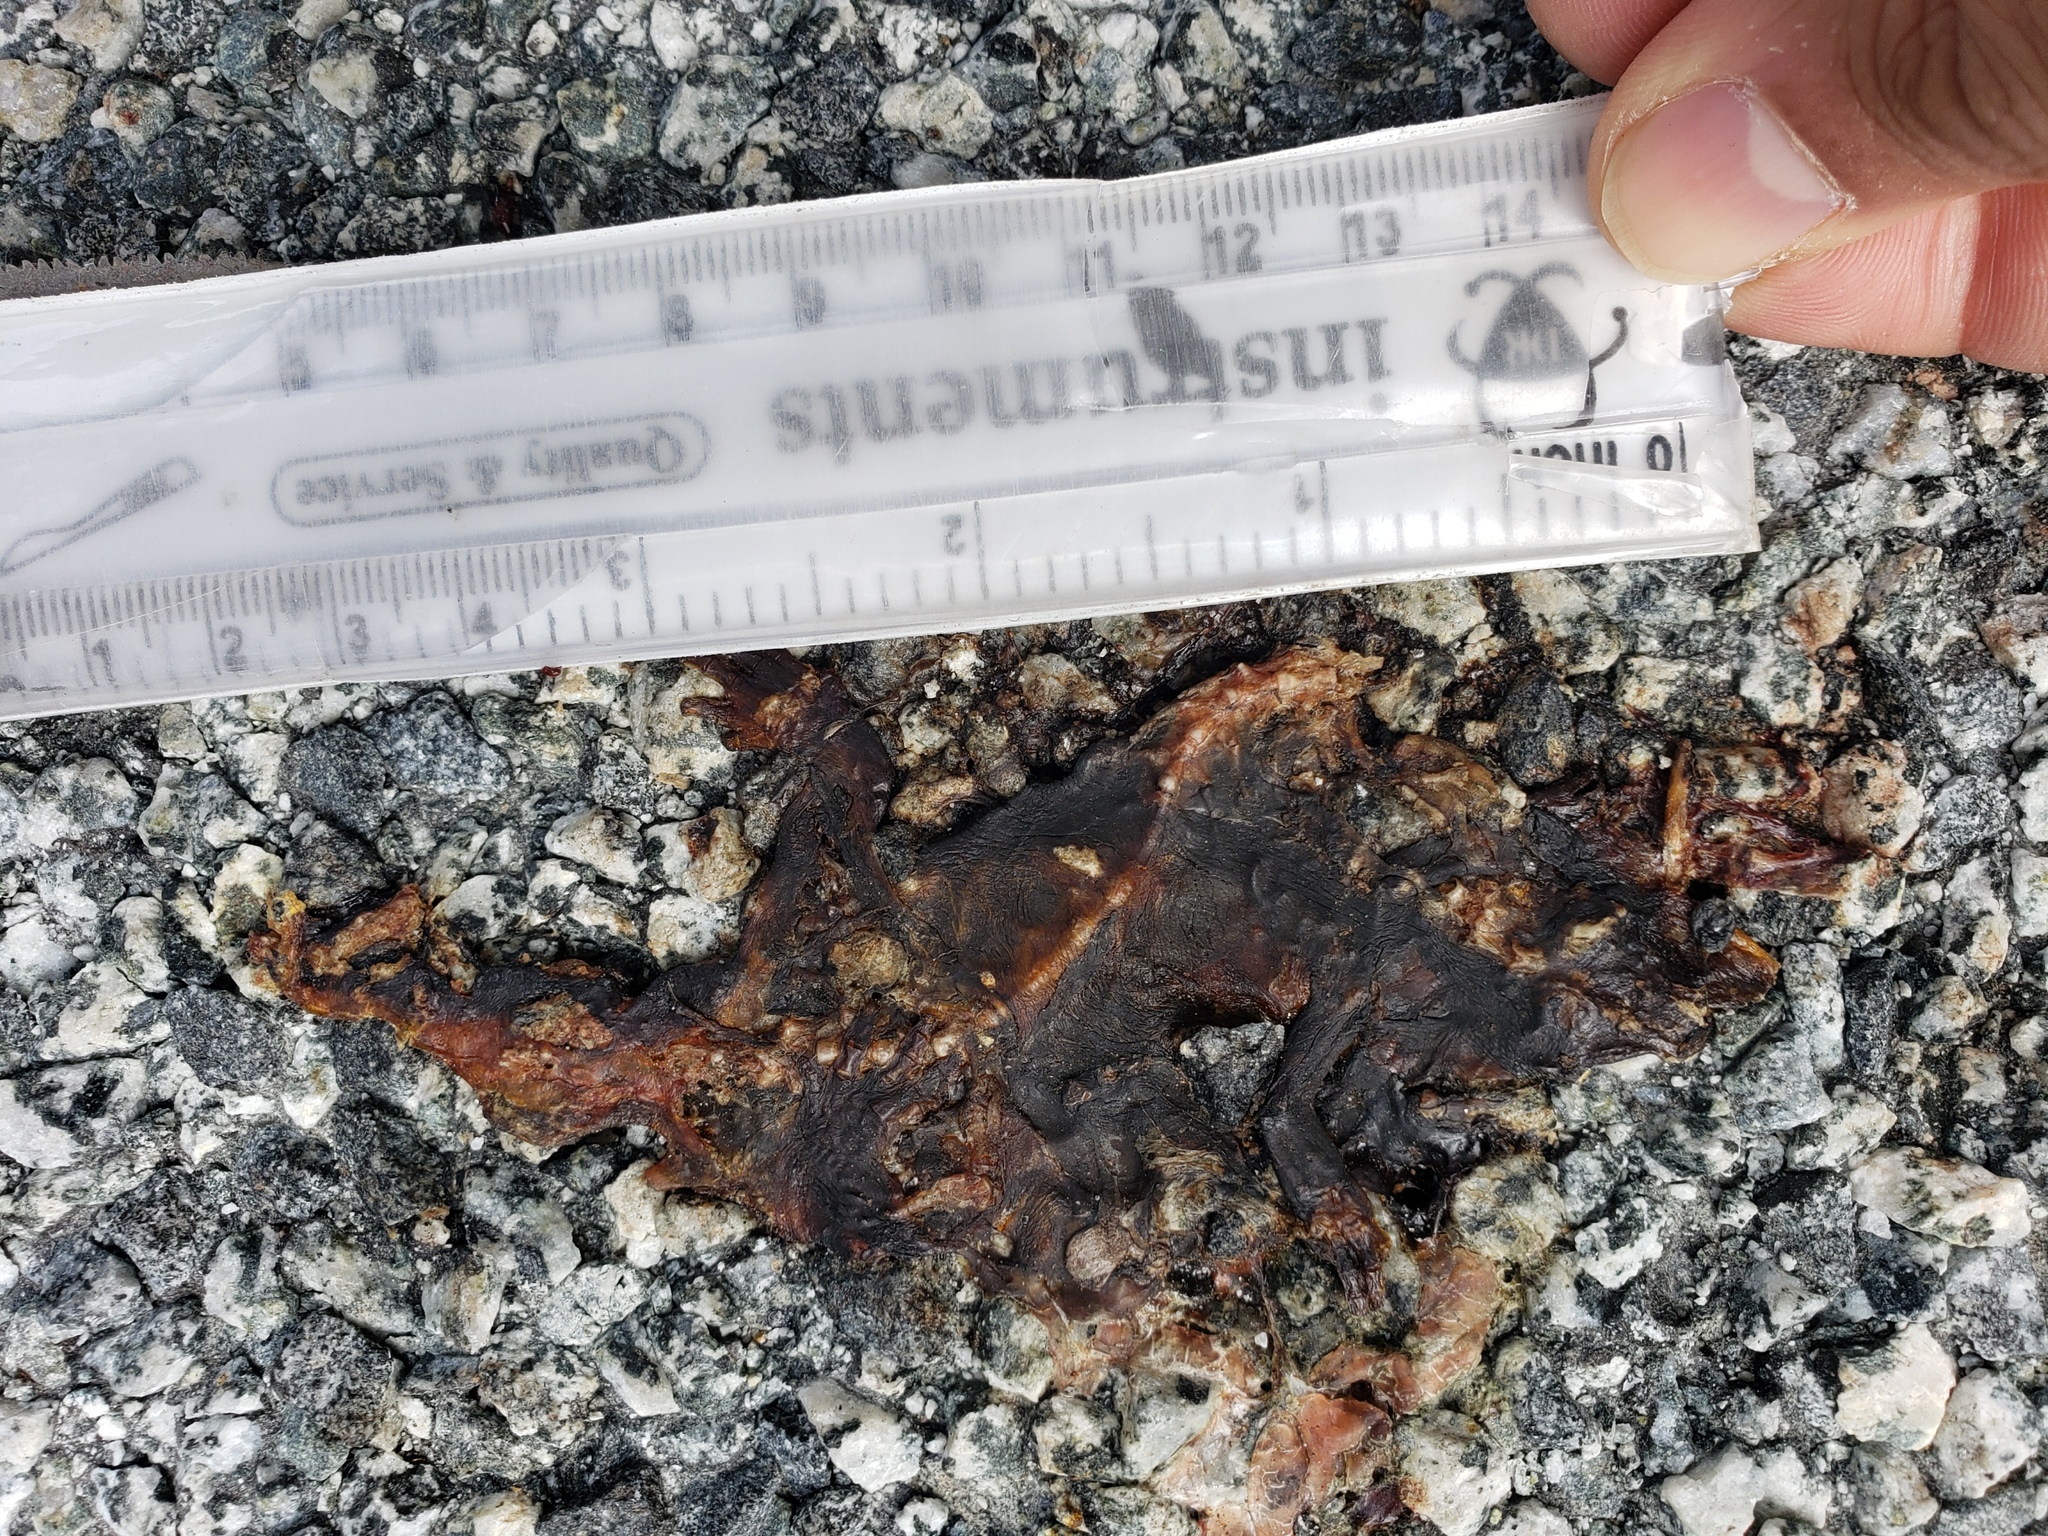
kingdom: Animalia
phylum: Chordata
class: Amphibia
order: Caudata
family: Salamandridae
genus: Taricha
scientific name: Taricha
